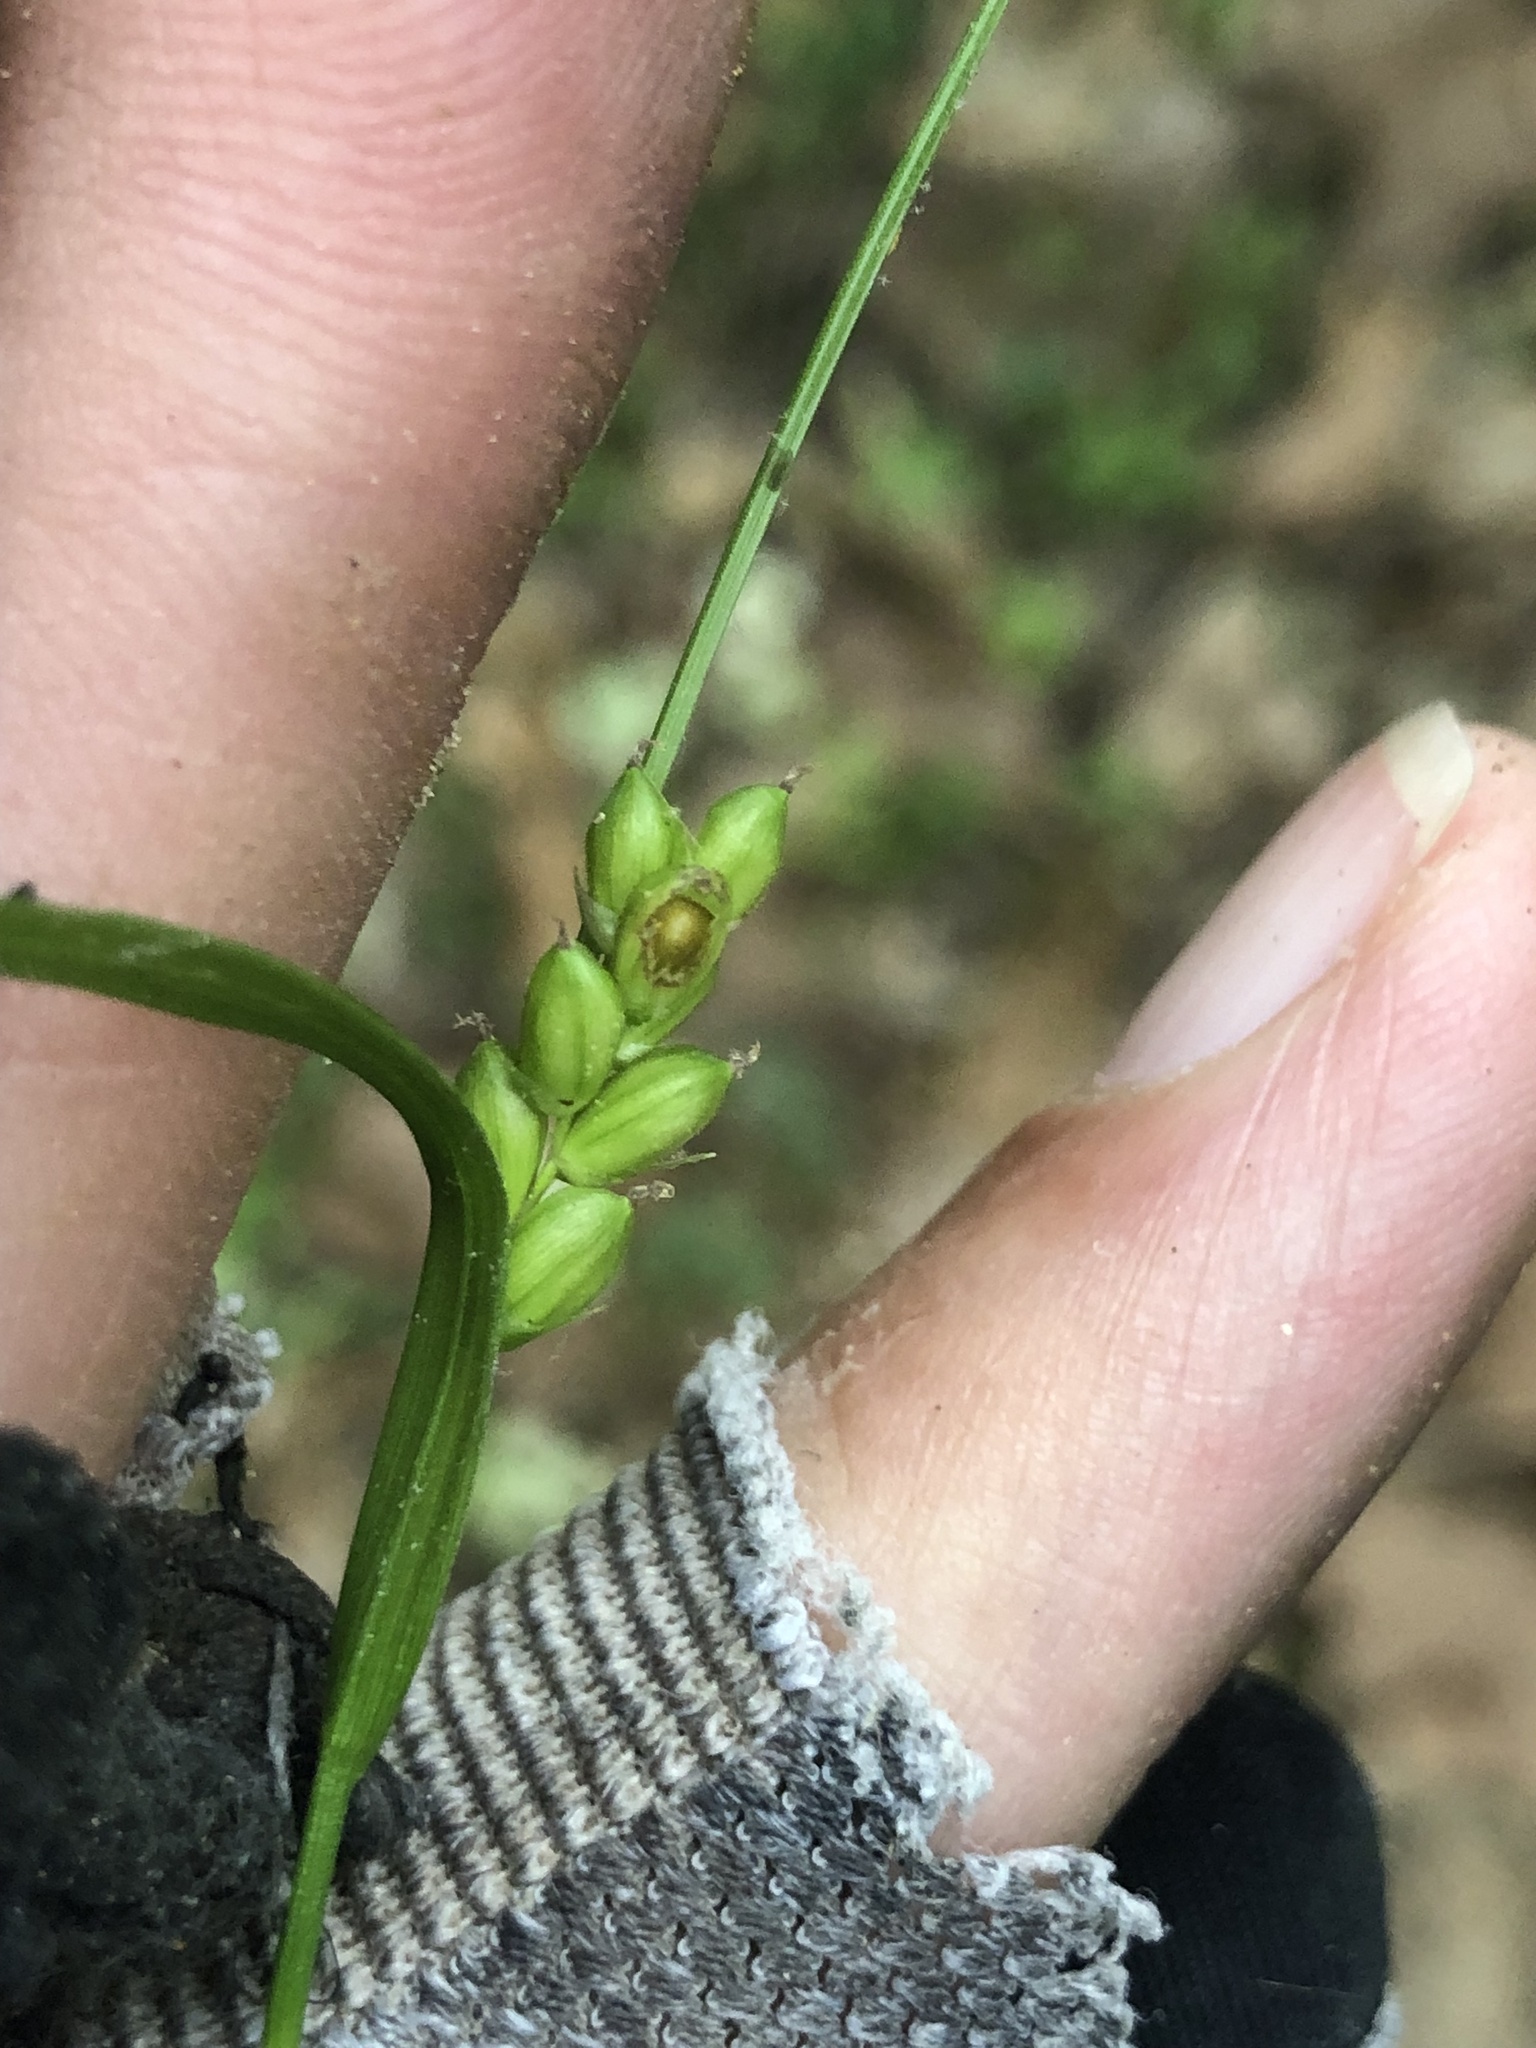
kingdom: Plantae
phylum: Tracheophyta
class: Liliopsida
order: Poales
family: Cyperaceae
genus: Carex
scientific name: Carex corrugata
